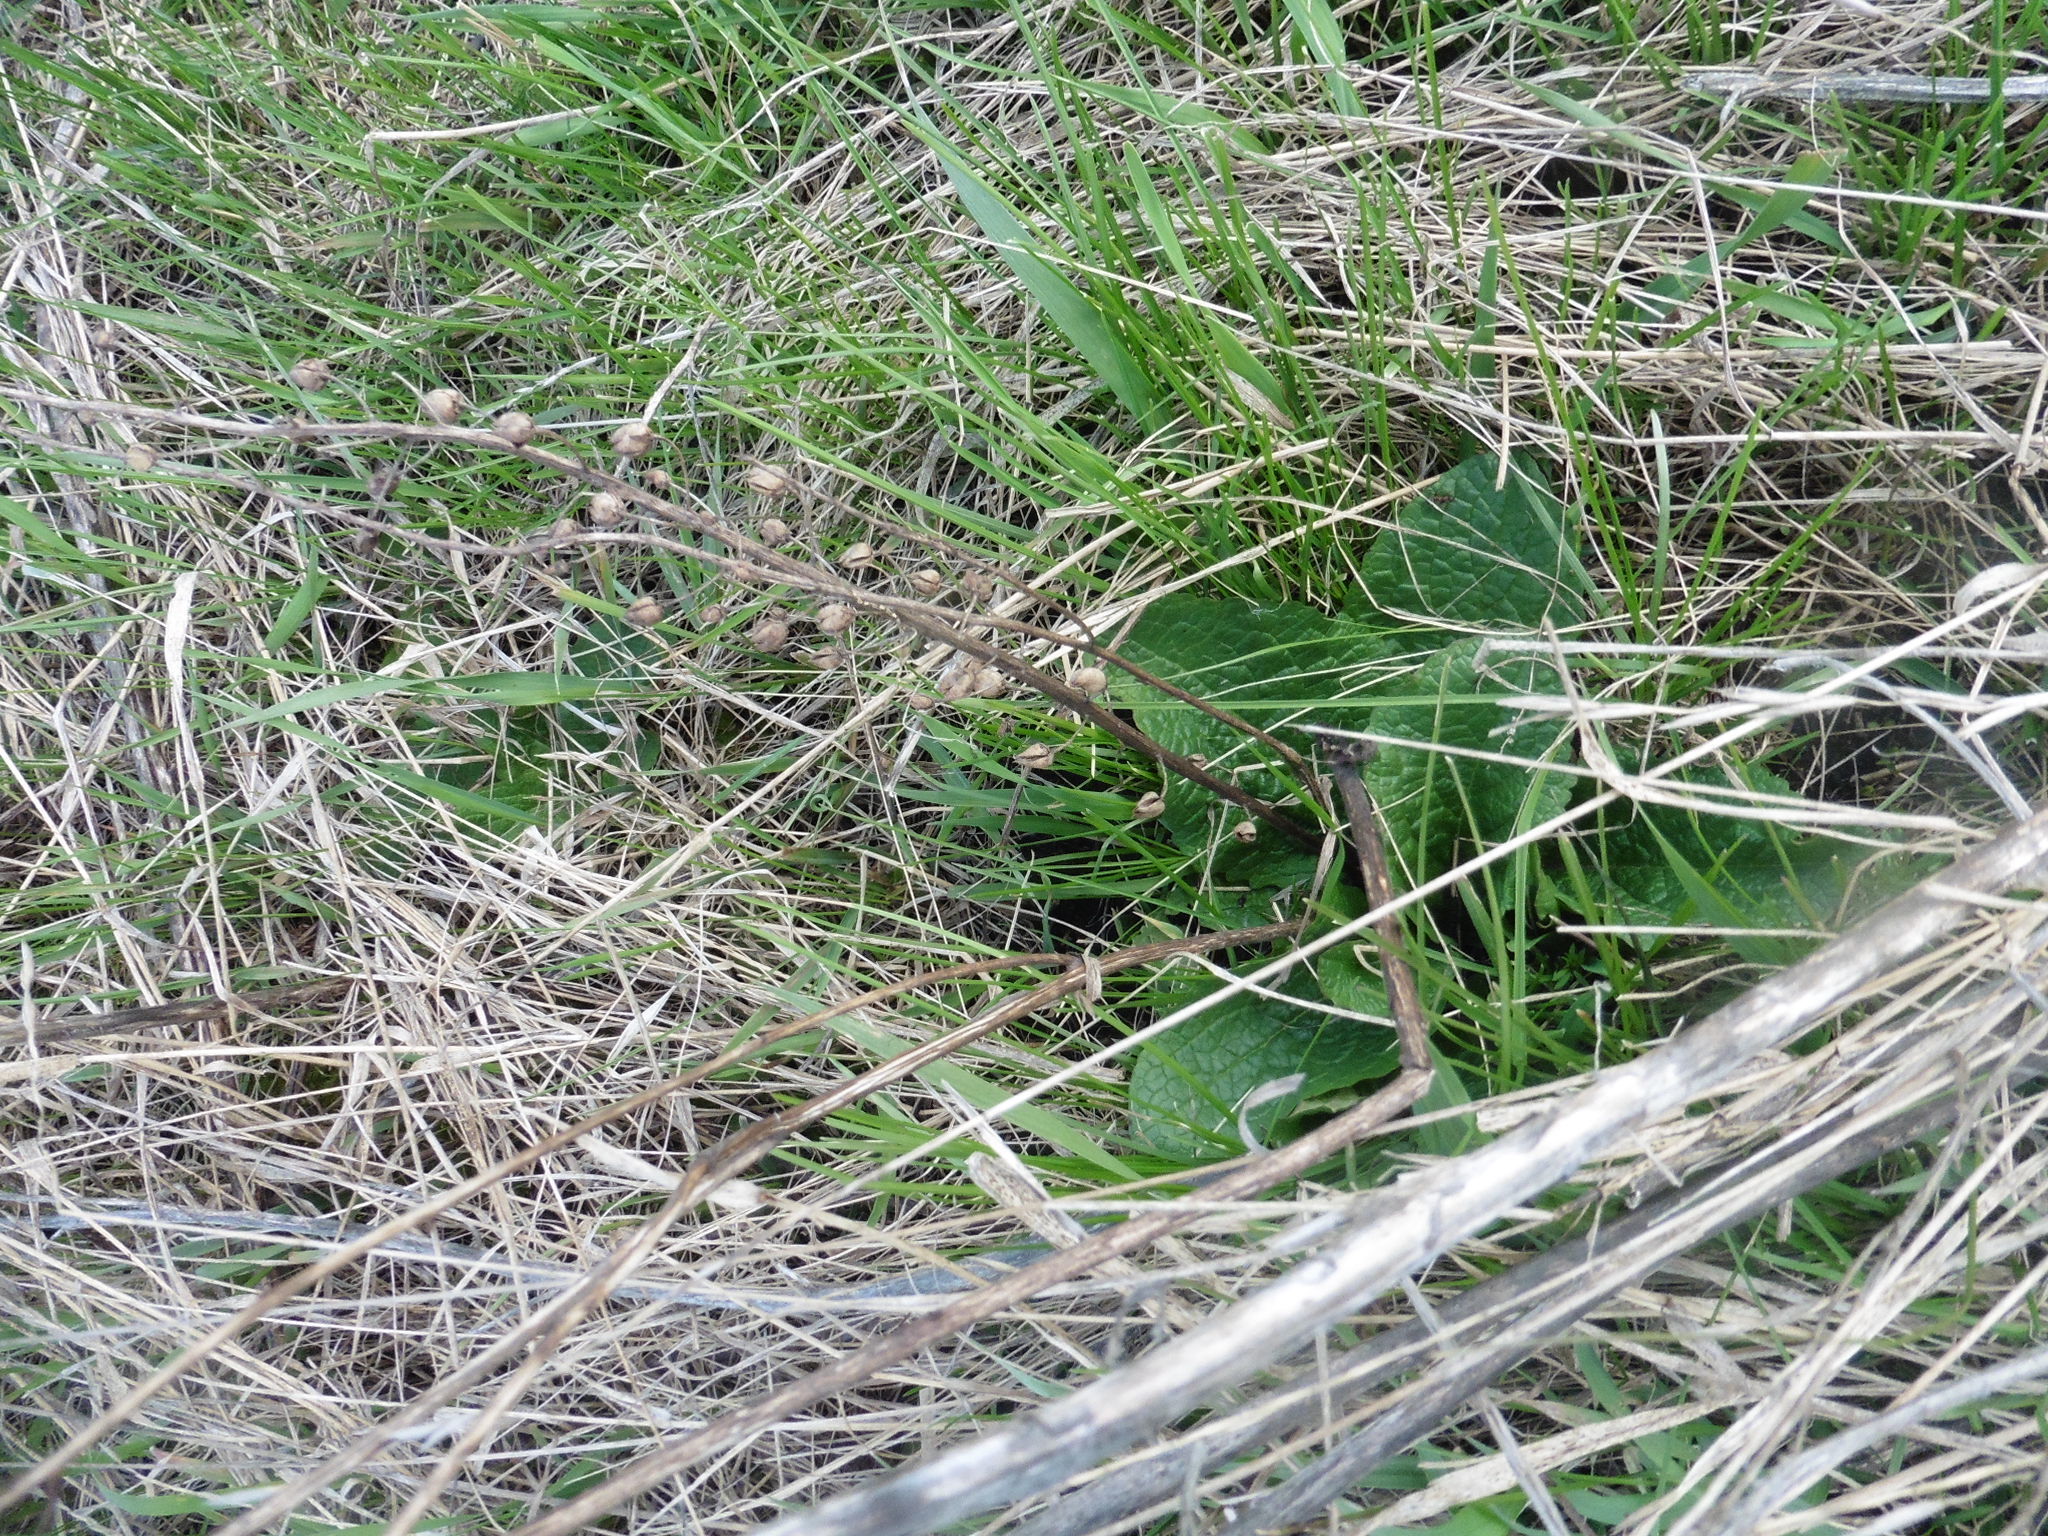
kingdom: Plantae
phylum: Tracheophyta
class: Magnoliopsida
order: Lamiales
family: Scrophulariaceae
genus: Verbascum
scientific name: Verbascum phoeniceum
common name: Purple mullein
